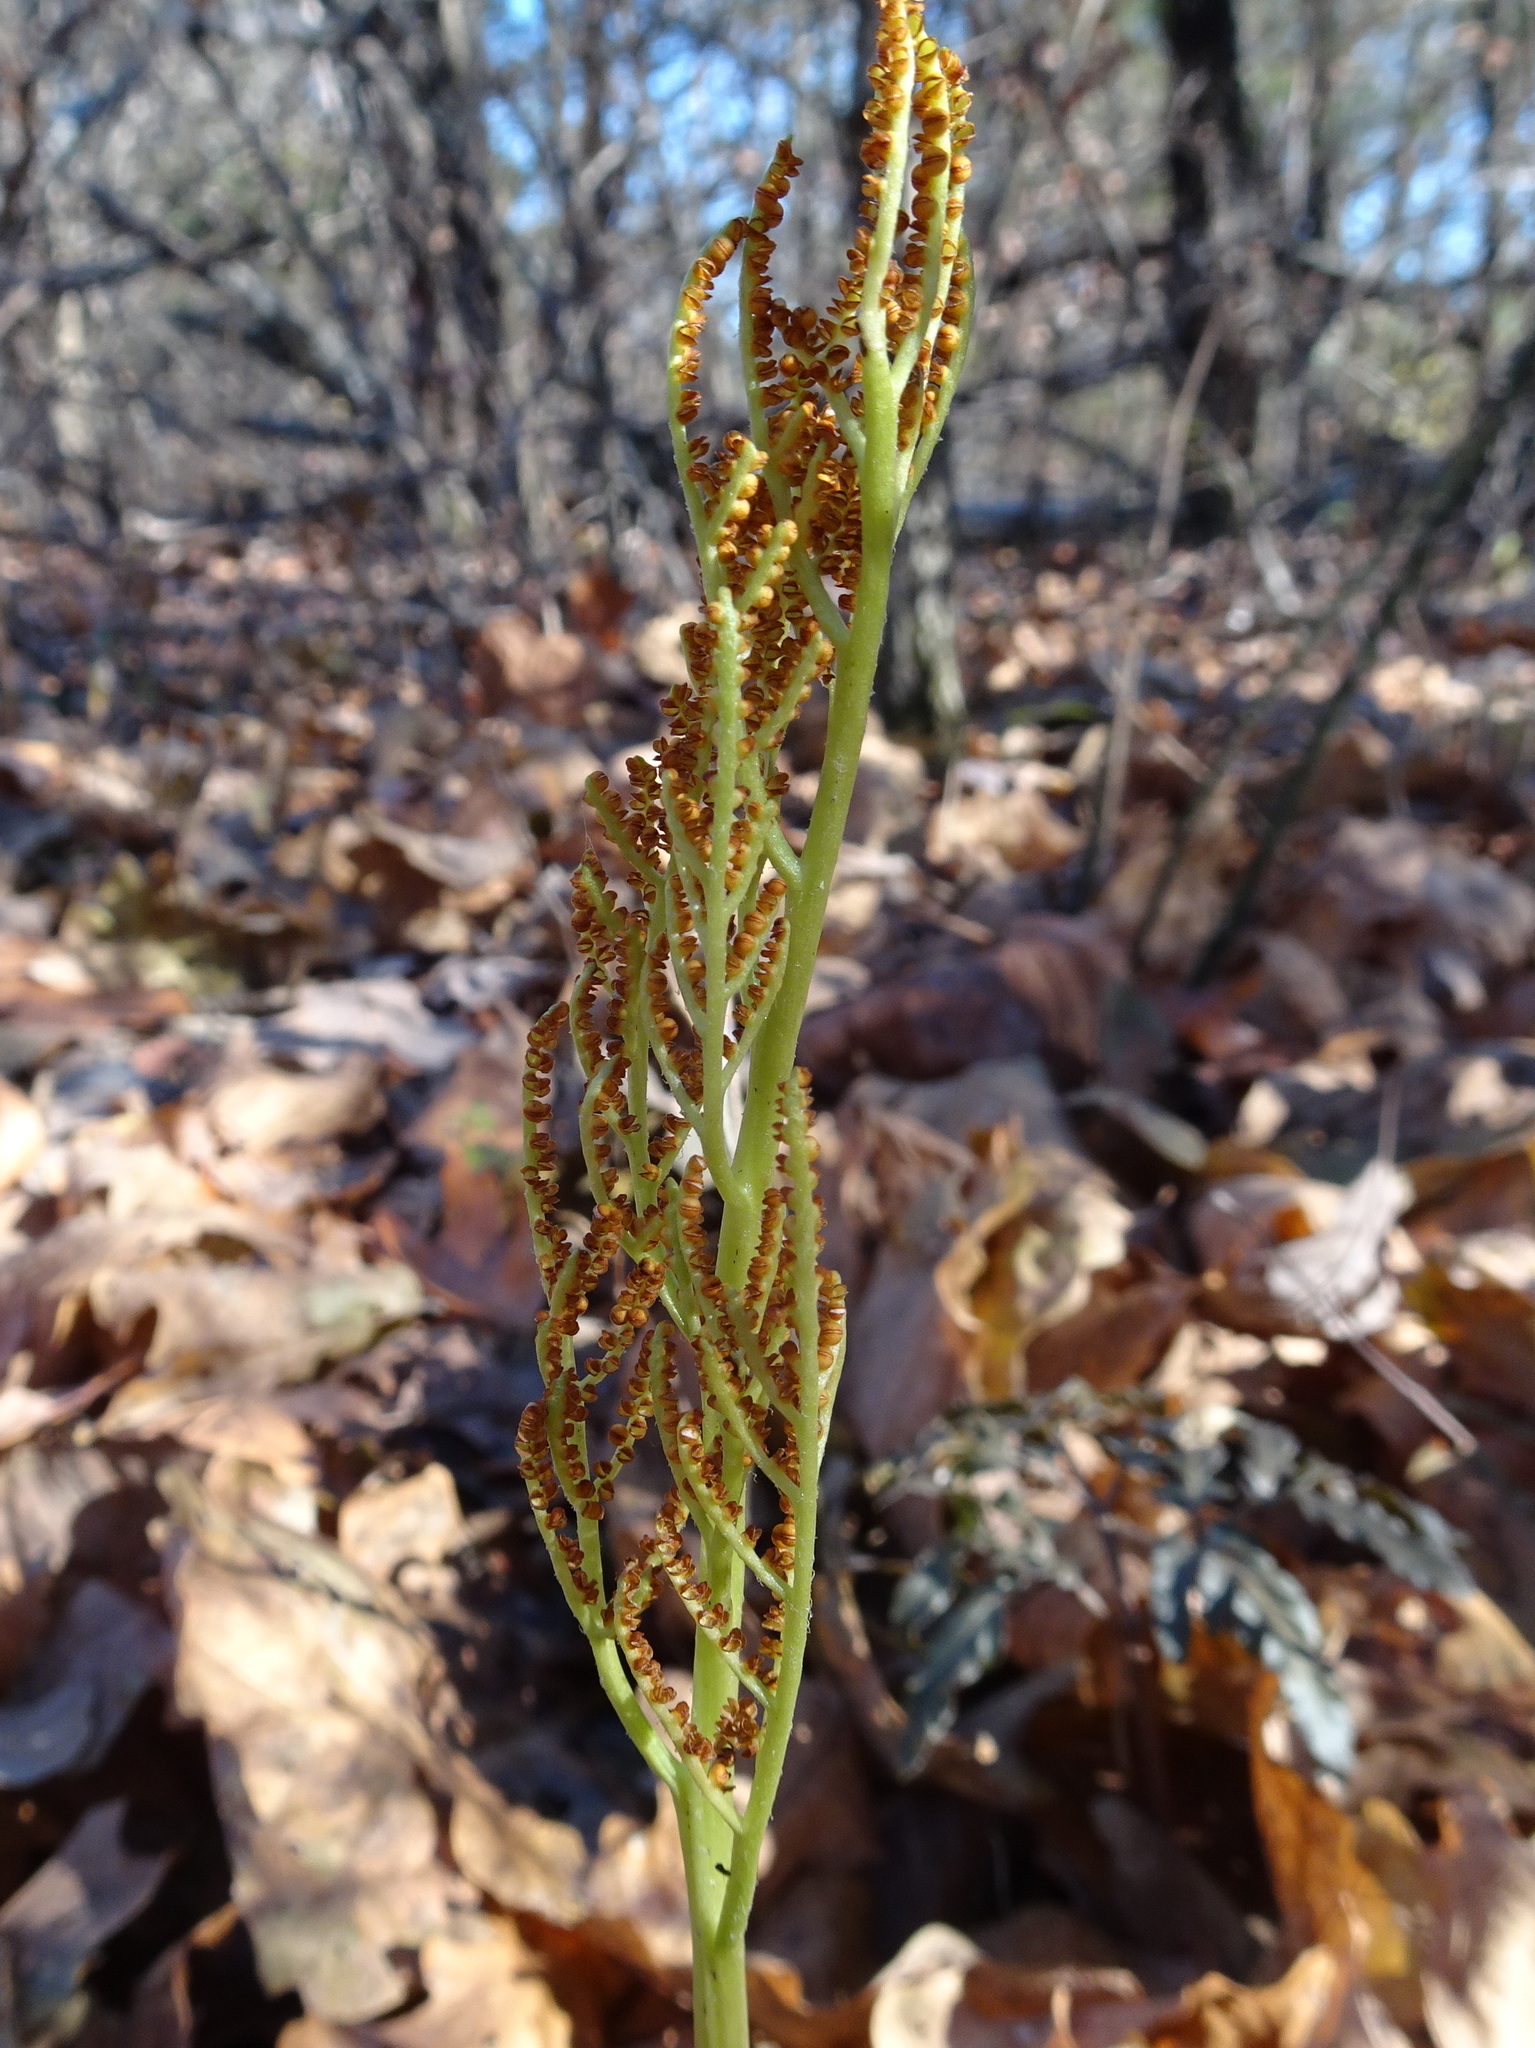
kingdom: Plantae
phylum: Tracheophyta
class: Polypodiopsida
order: Ophioglossales
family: Ophioglossaceae
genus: Sceptridium
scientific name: Sceptridium dissectum
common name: Cut-leaved grapefern
